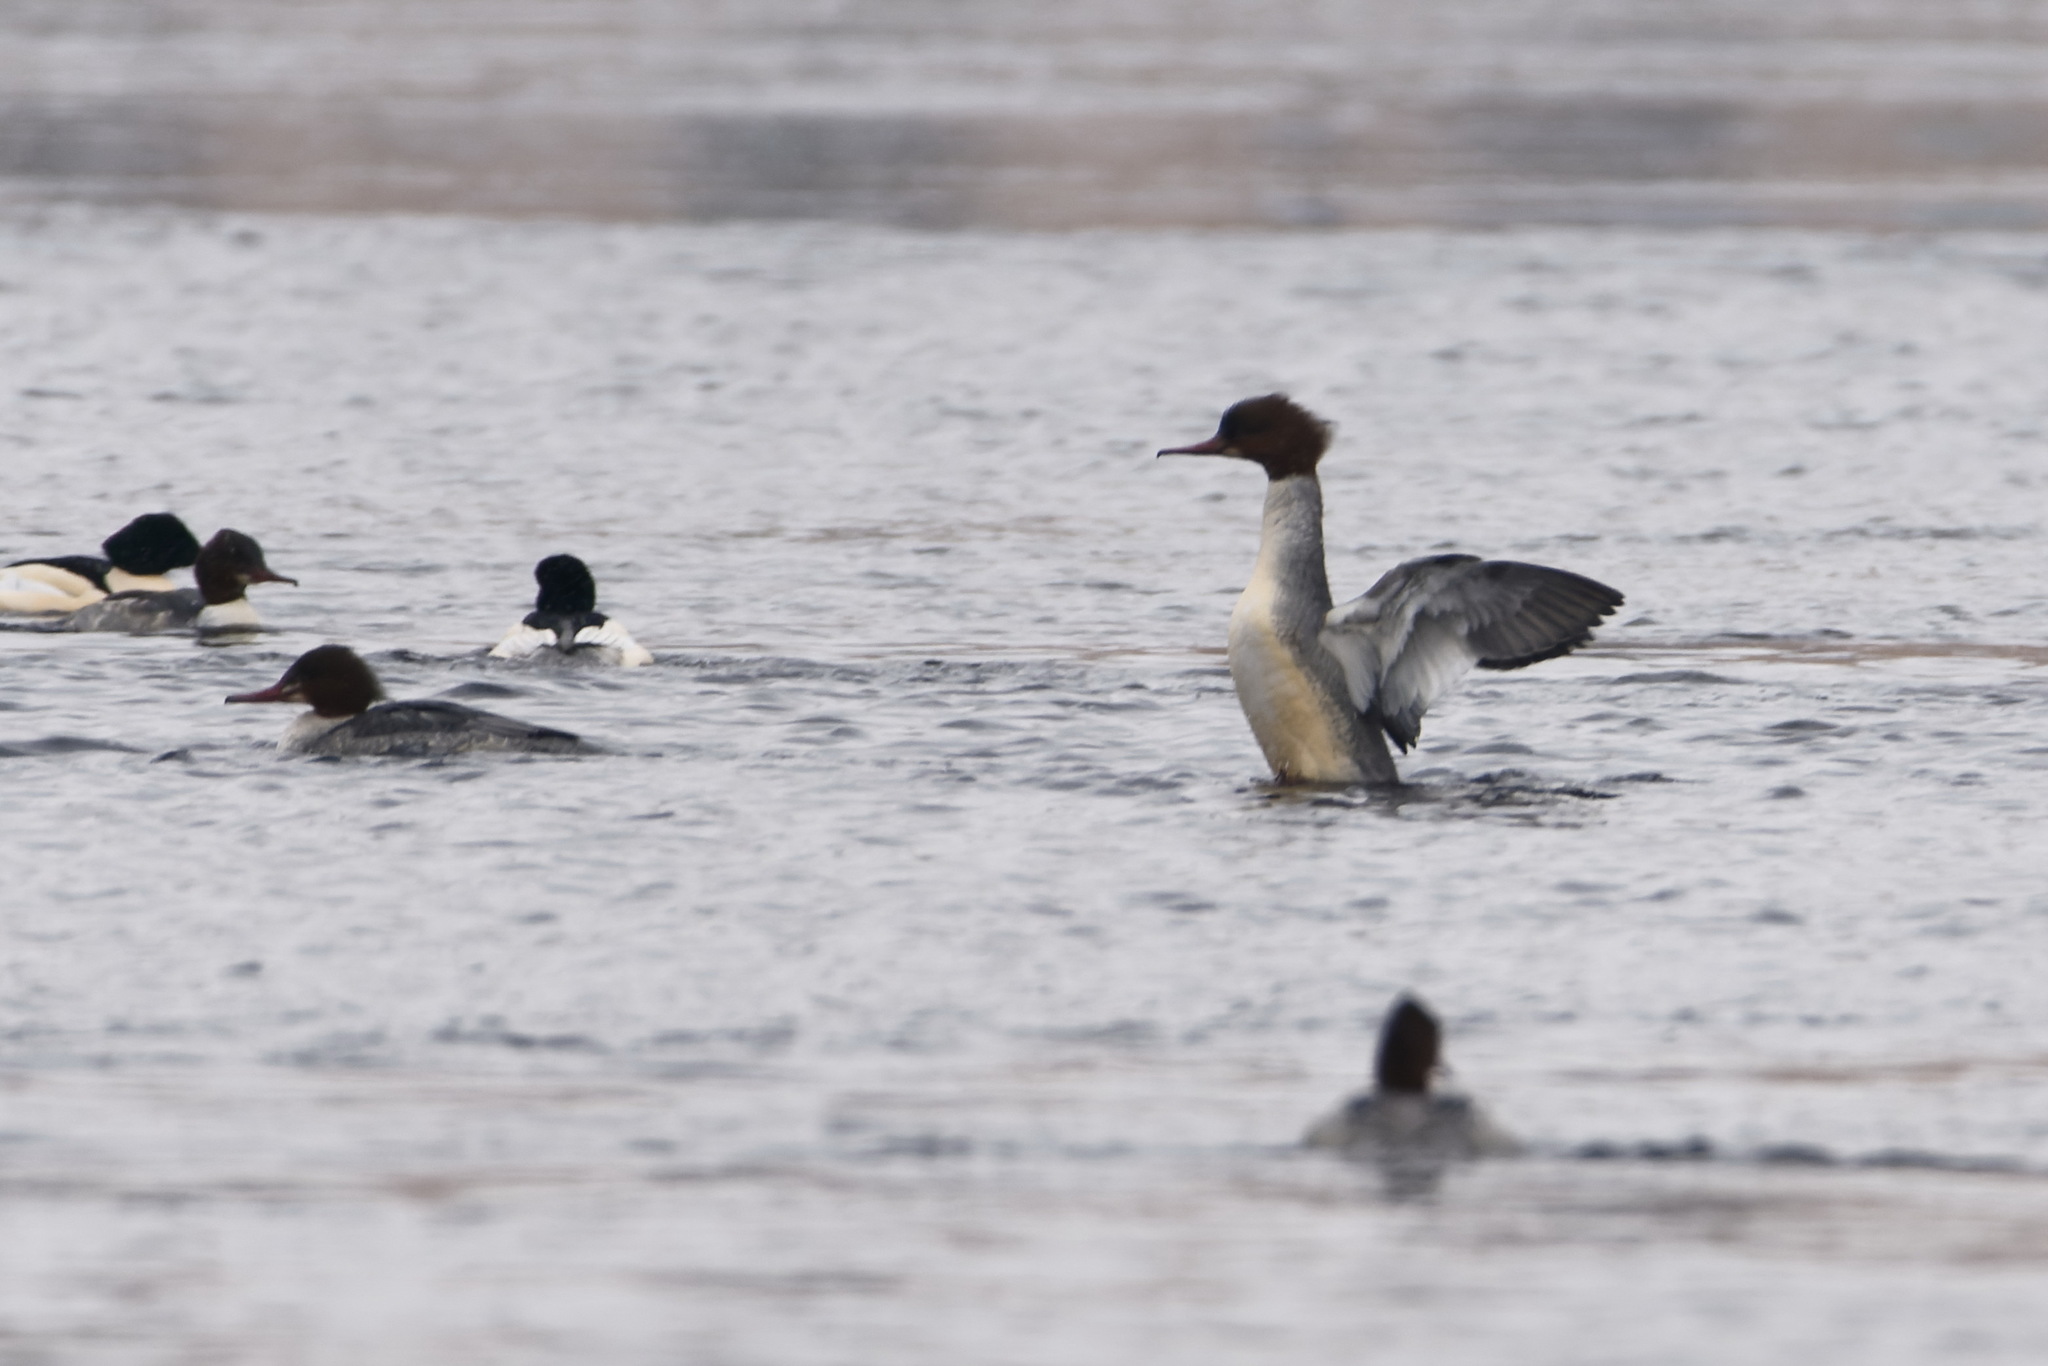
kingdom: Animalia
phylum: Chordata
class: Aves
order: Anseriformes
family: Anatidae
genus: Mergus
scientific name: Mergus merganser
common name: Common merganser
